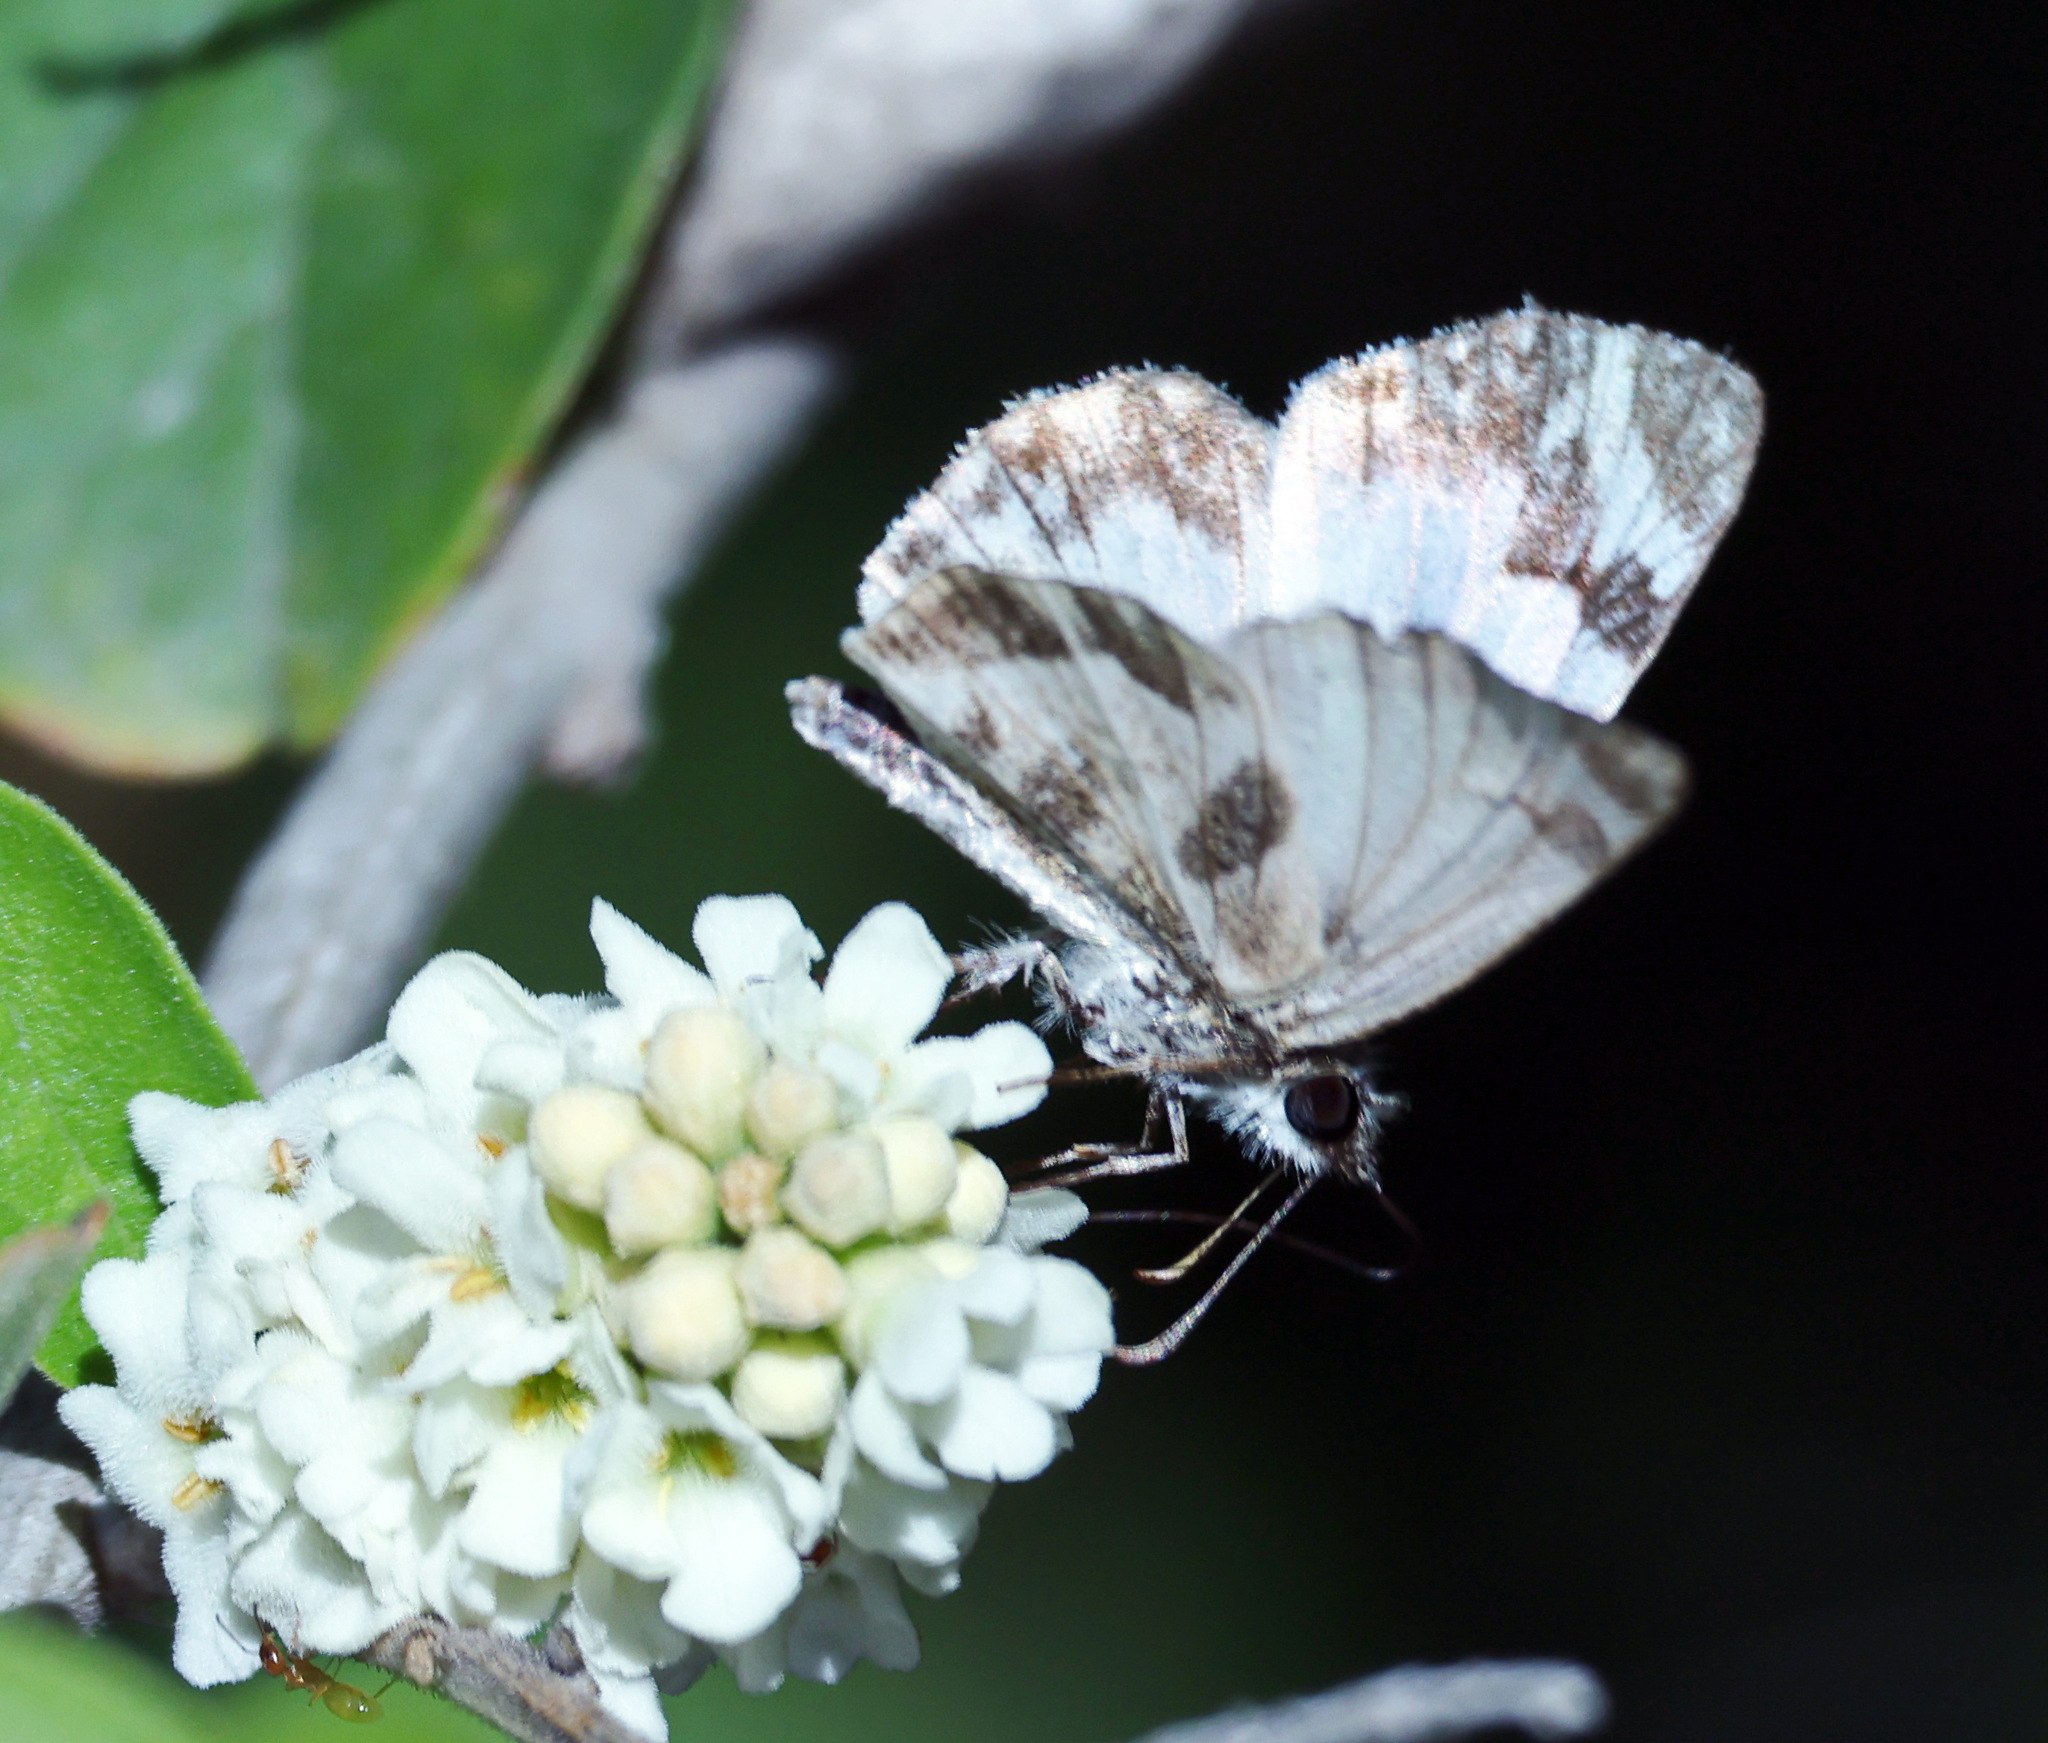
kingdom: Animalia
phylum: Arthropoda
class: Insecta
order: Lepidoptera
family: Hesperiidae
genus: Heliopetes
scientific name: Heliopetes macaira
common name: Turk's-cap white-skipper
